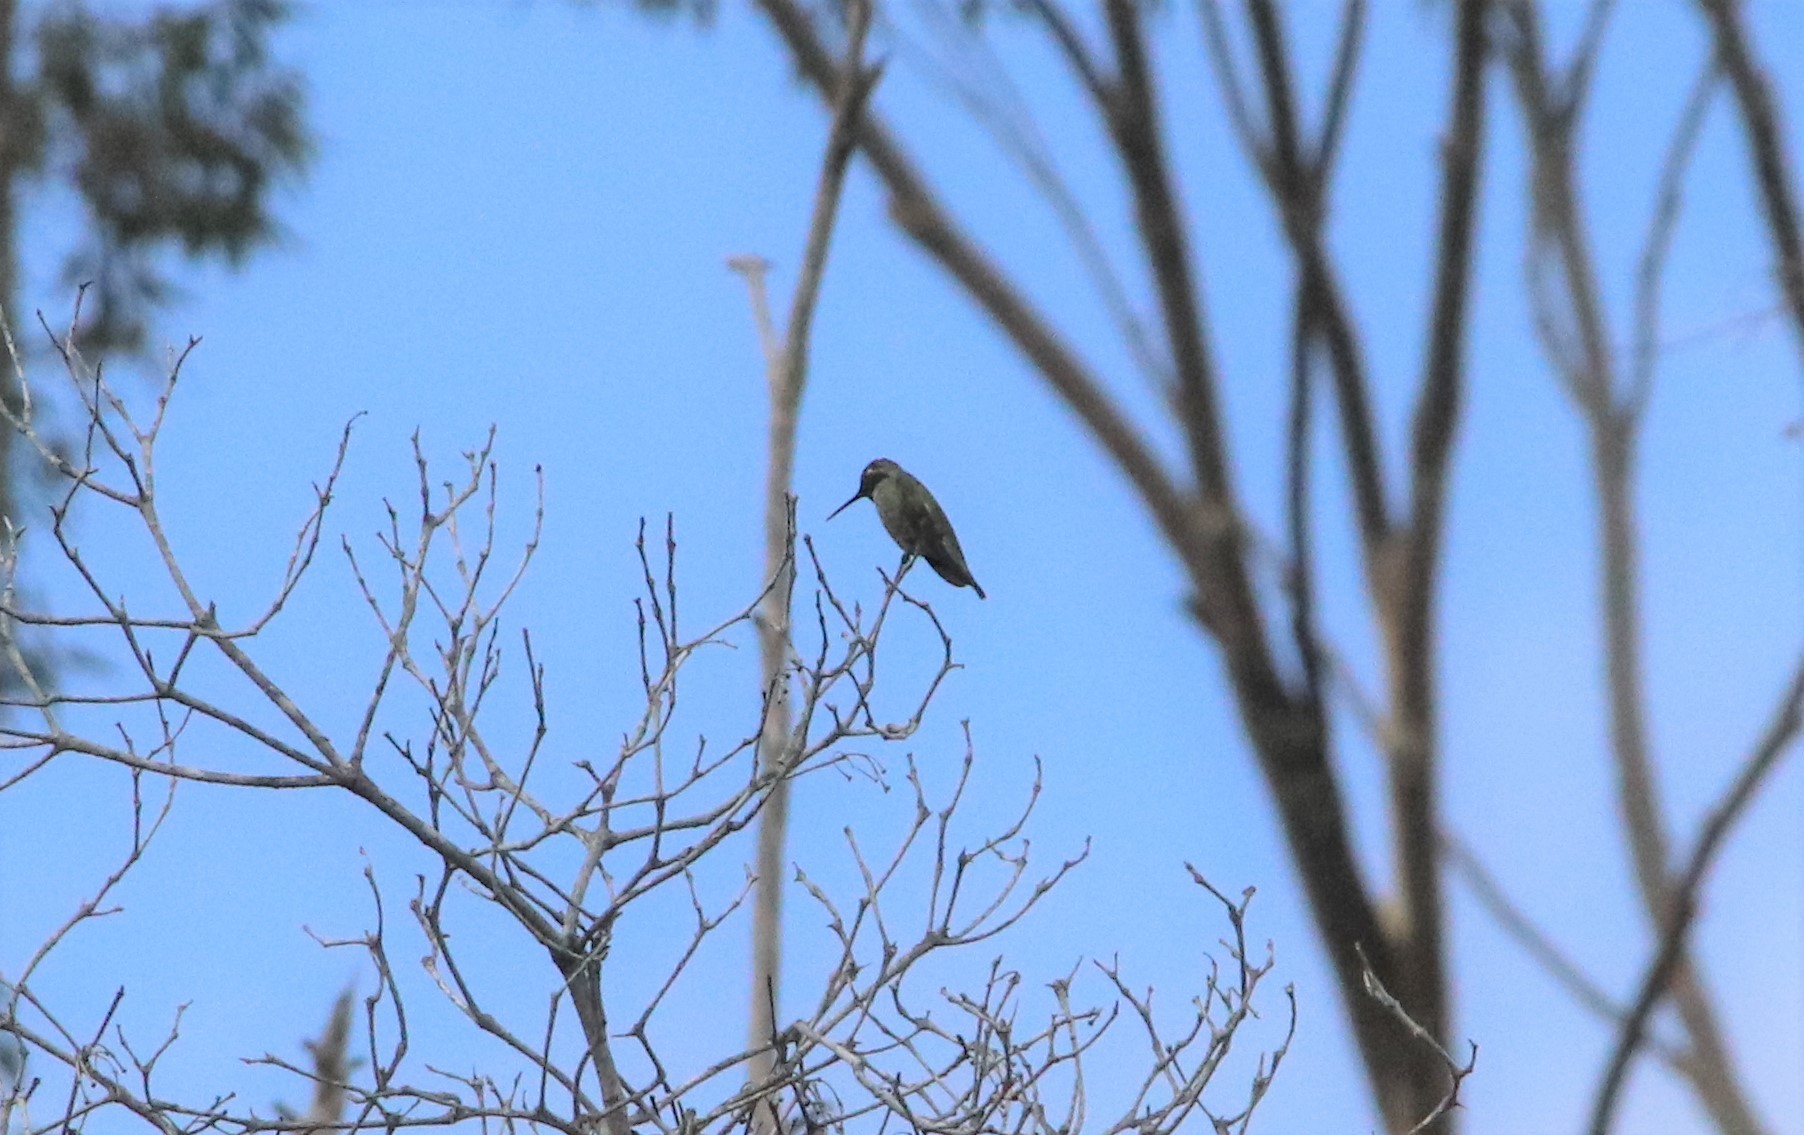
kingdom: Animalia
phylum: Chordata
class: Aves
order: Apodiformes
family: Trochilidae
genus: Calypte
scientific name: Calypte anna
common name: Anna's hummingbird
